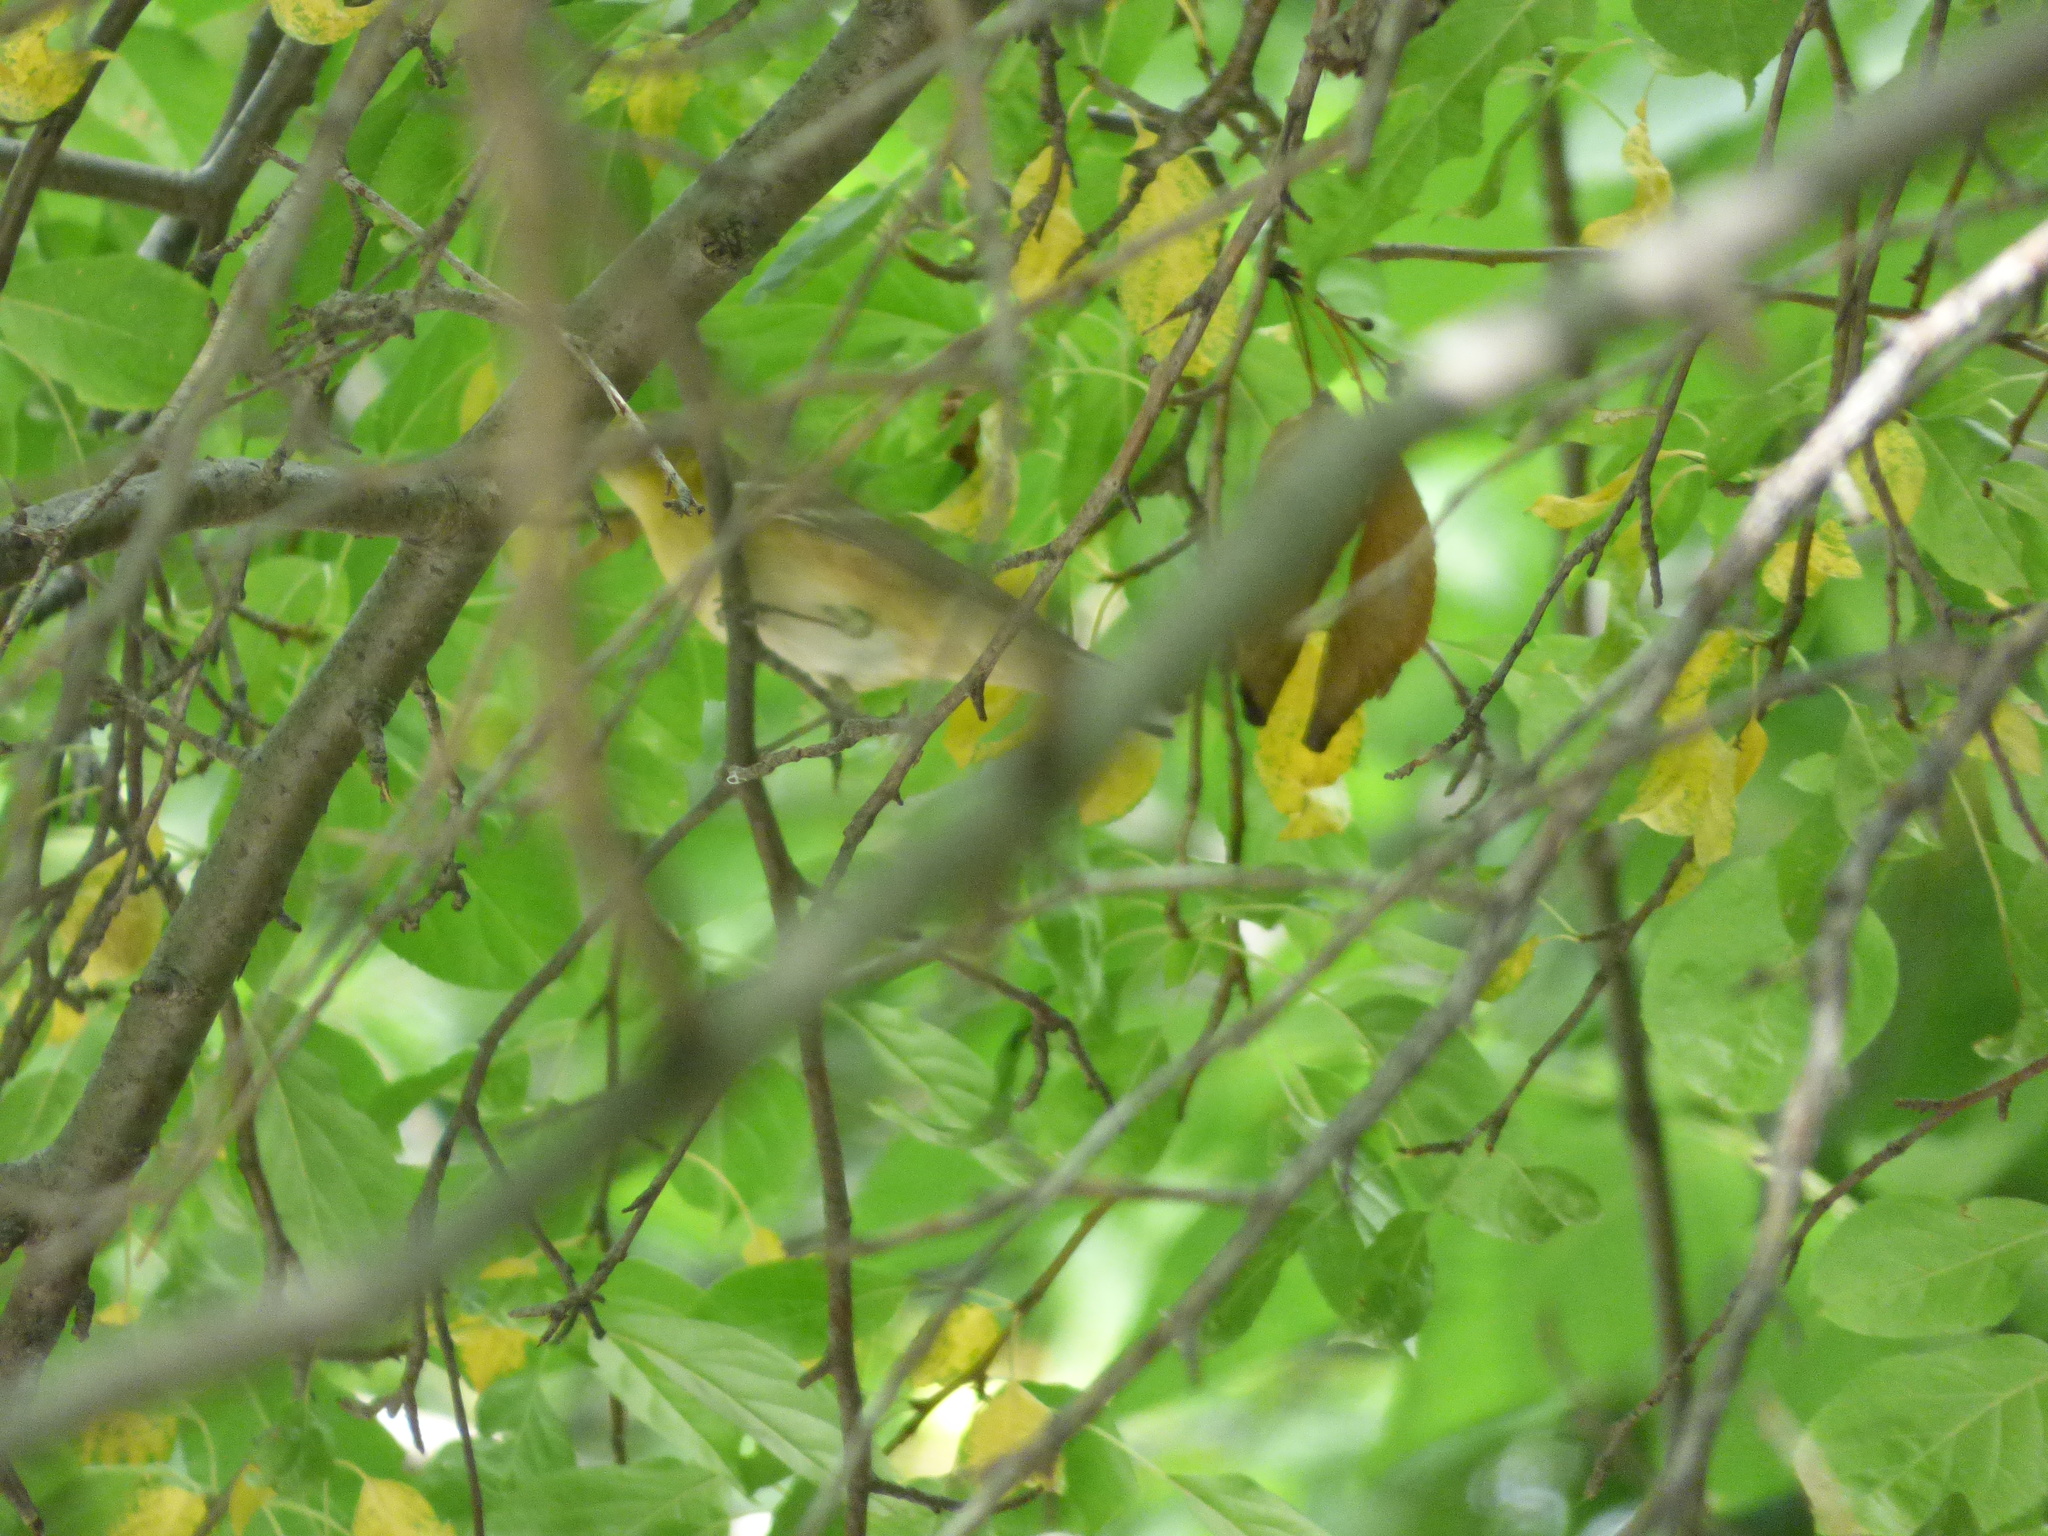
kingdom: Animalia
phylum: Chordata
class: Aves
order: Passeriformes
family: Parulidae
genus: Setophaga
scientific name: Setophaga castanea
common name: Bay-breasted warbler
